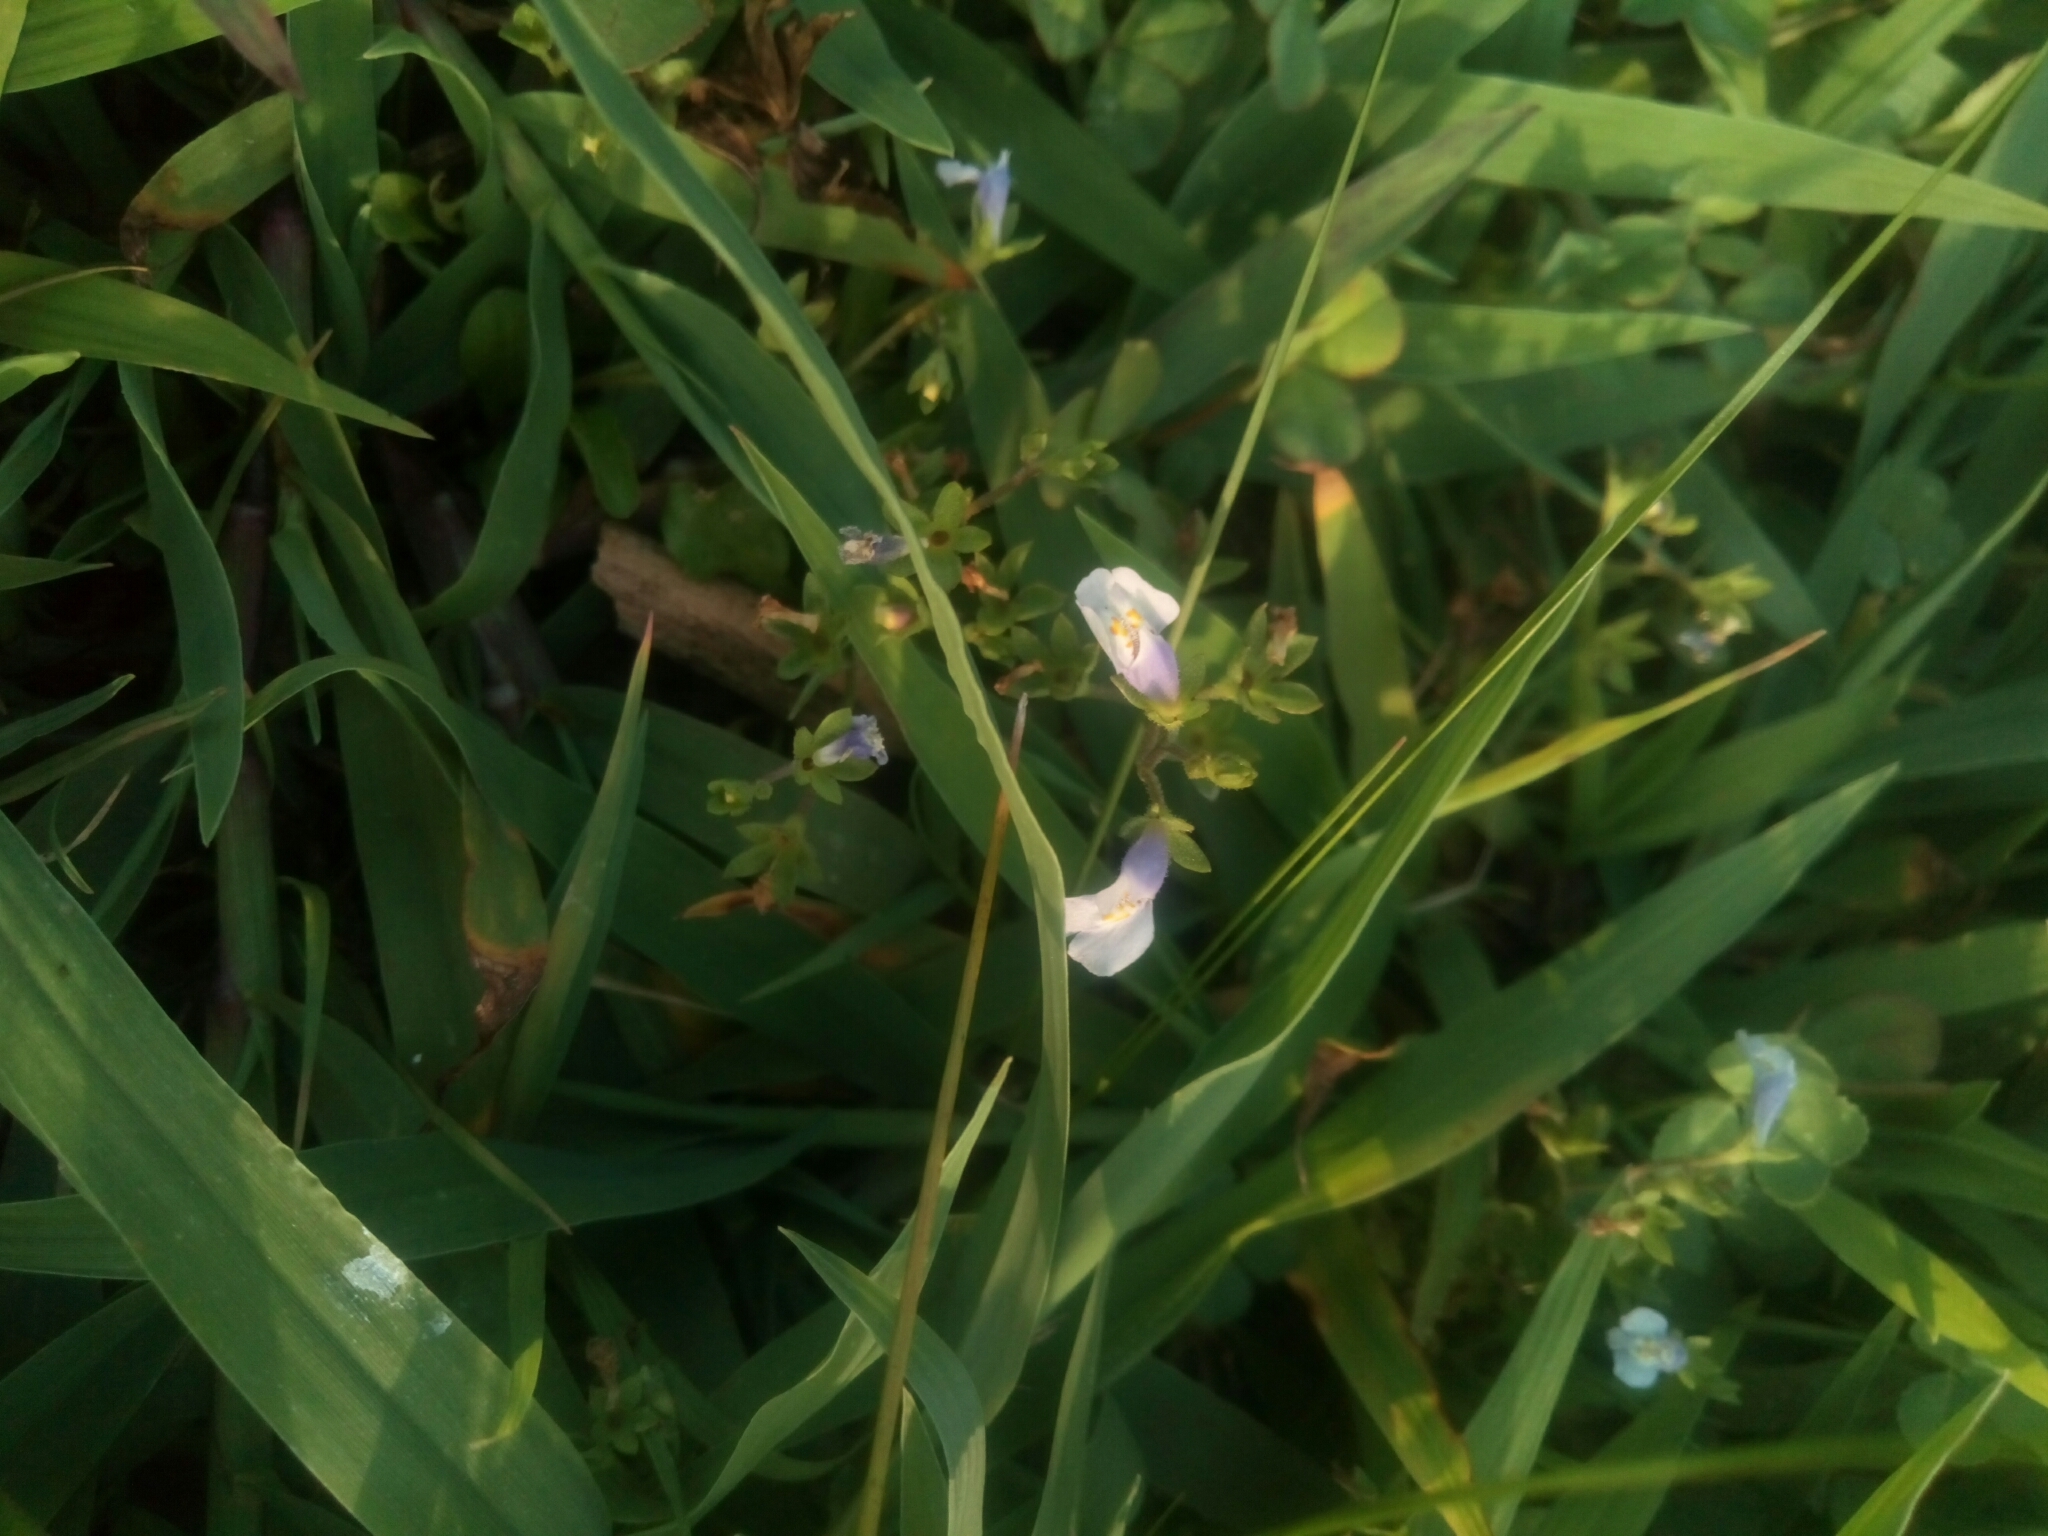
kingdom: Plantae
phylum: Tracheophyta
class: Magnoliopsida
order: Lamiales
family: Mazaceae
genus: Mazus
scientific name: Mazus pumilus
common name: Japanese mazus
